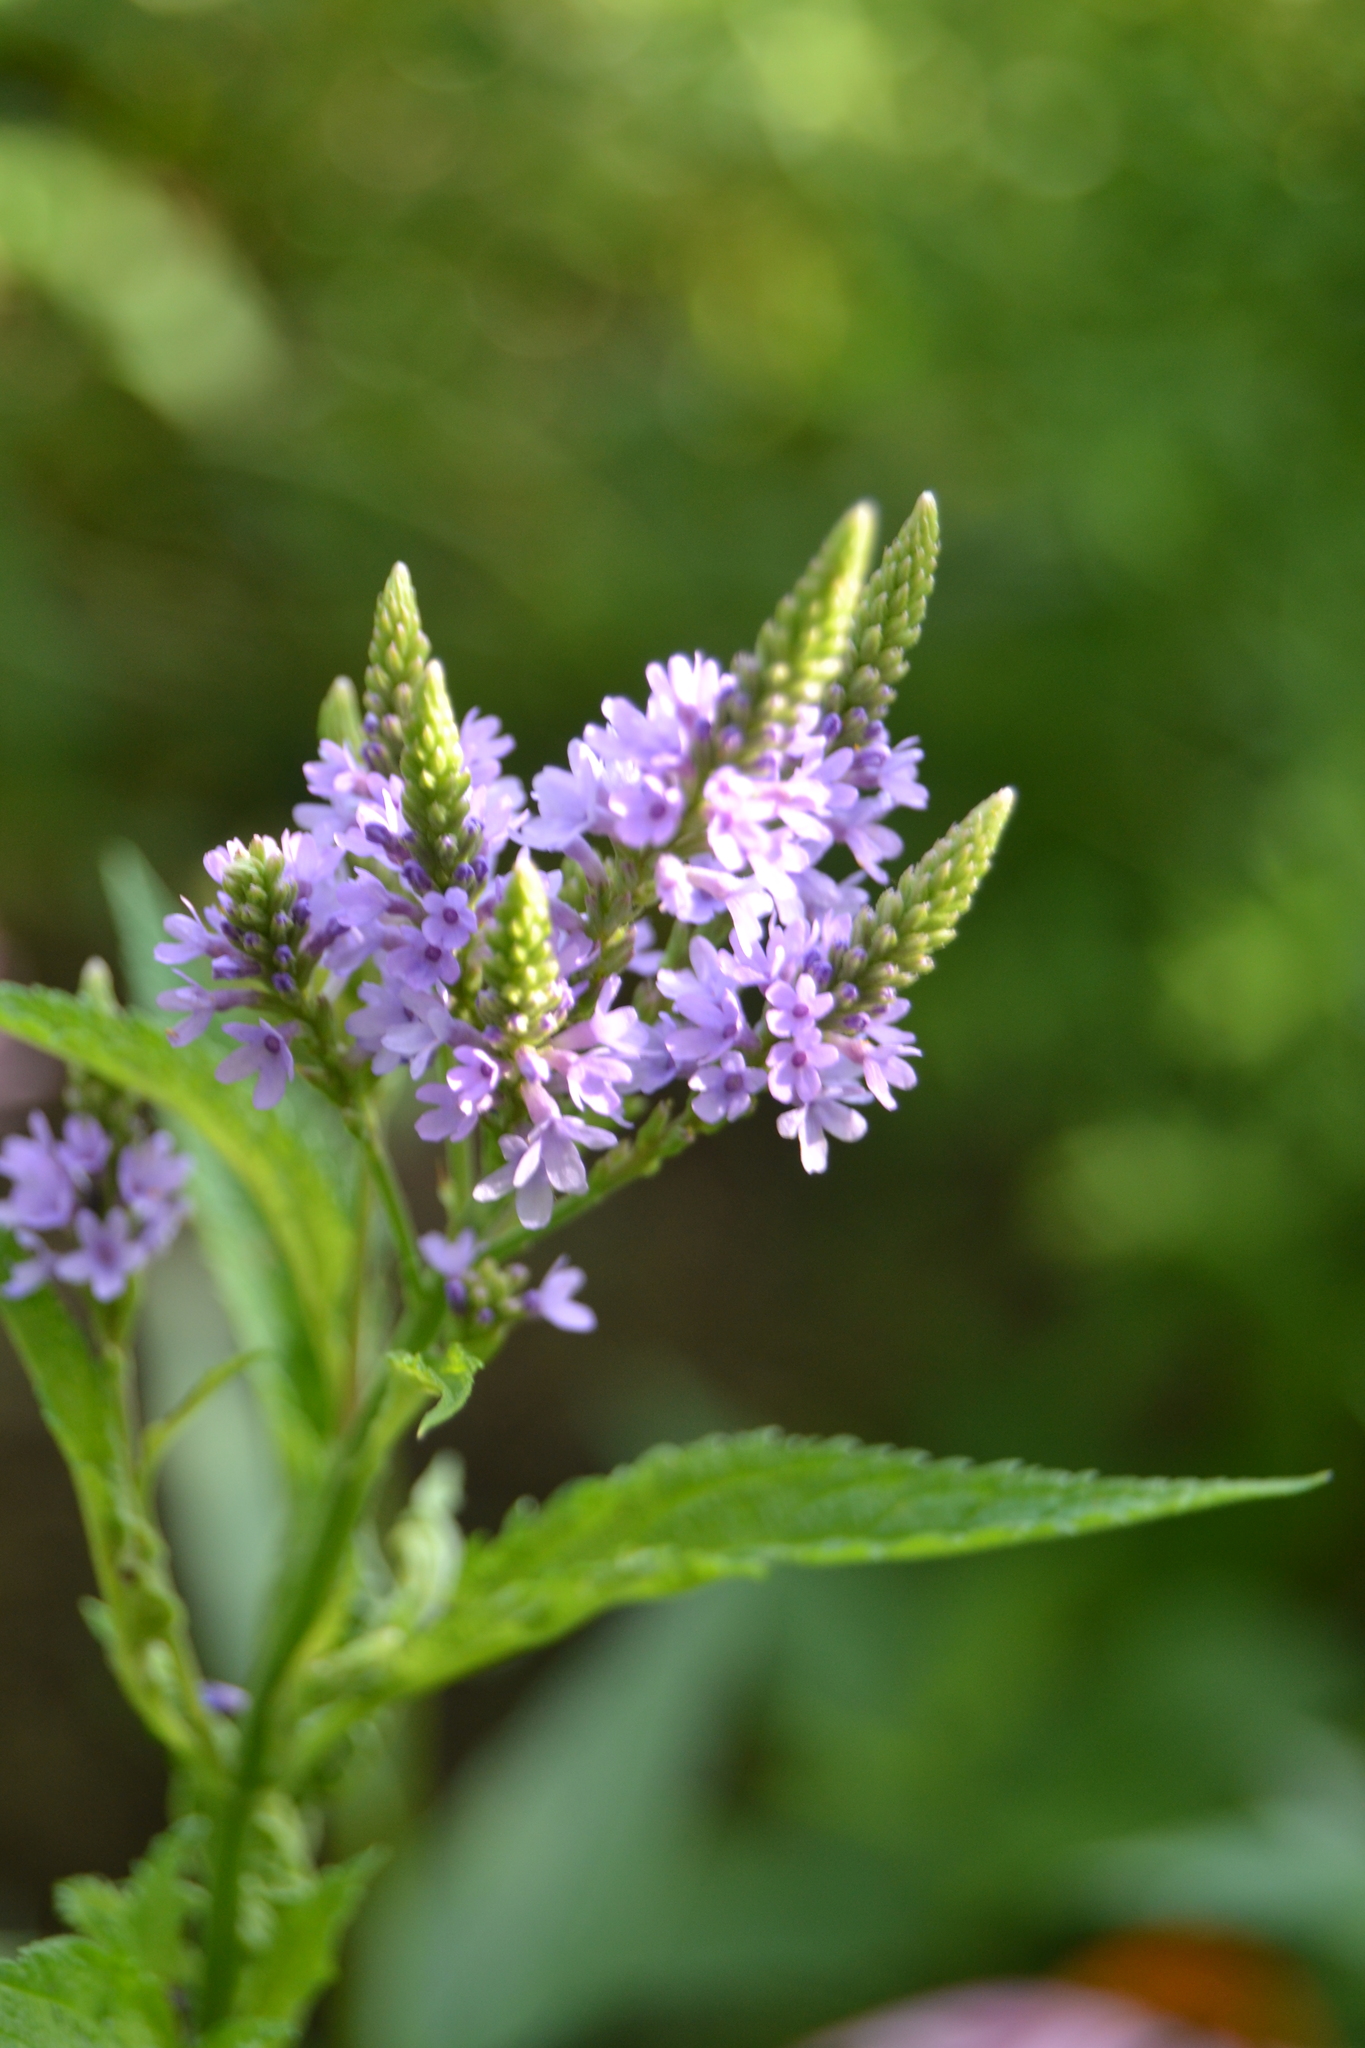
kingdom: Plantae
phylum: Tracheophyta
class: Magnoliopsida
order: Lamiales
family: Verbenaceae
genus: Verbena
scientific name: Verbena hastata
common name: American blue vervain
